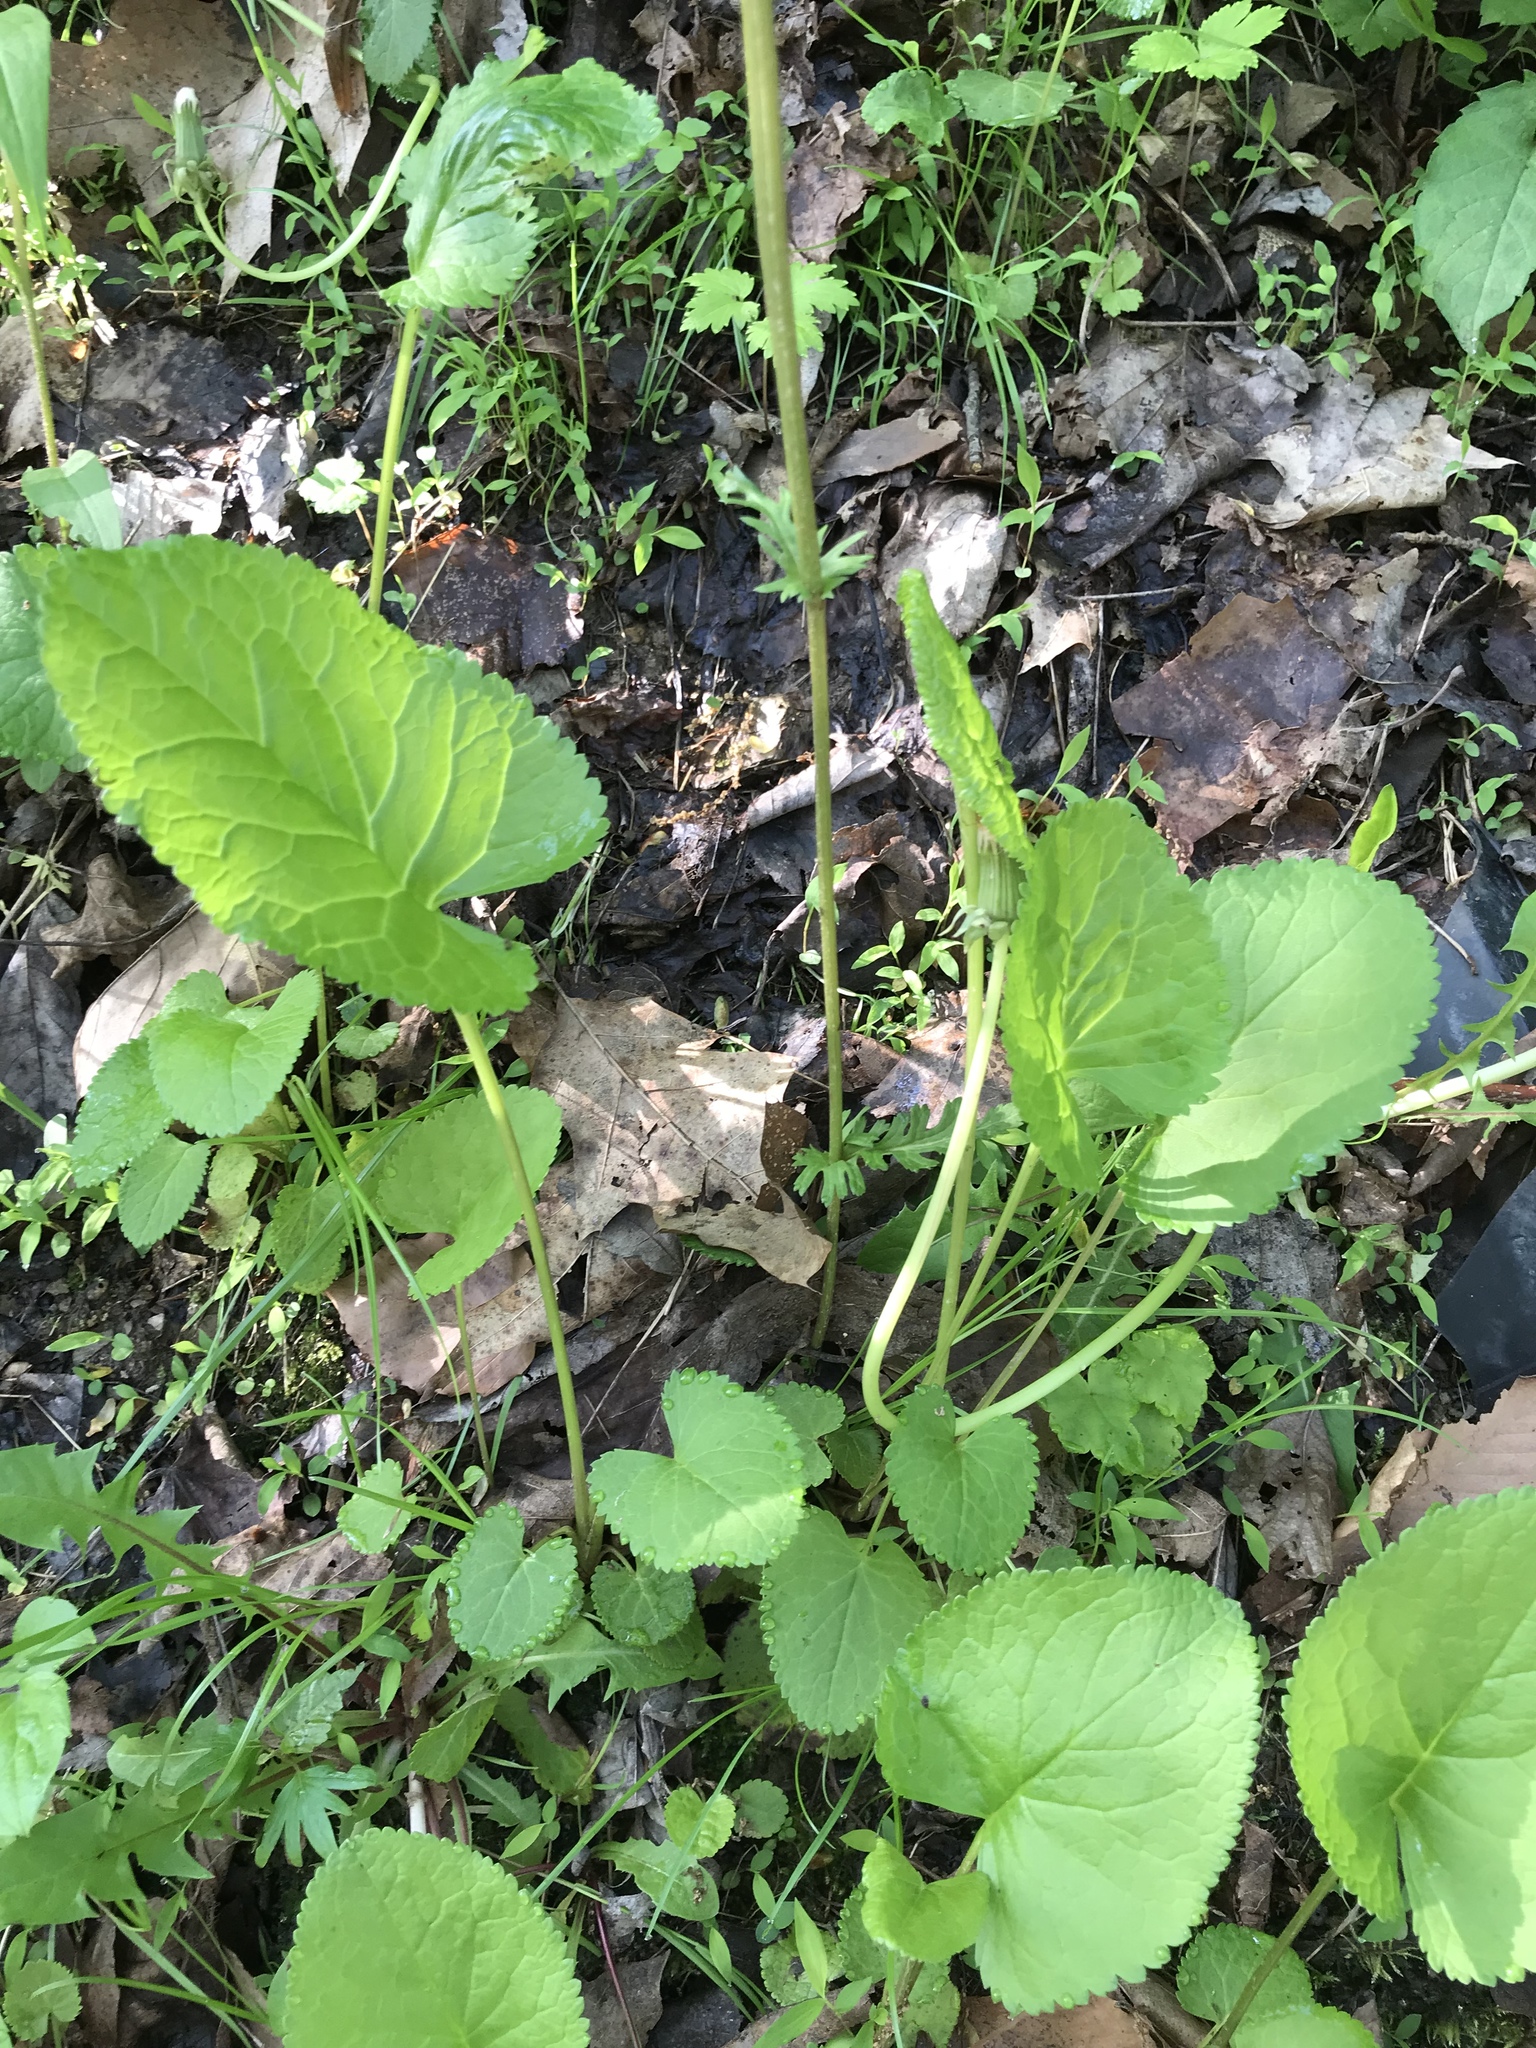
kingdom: Plantae
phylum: Tracheophyta
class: Magnoliopsida
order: Asterales
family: Asteraceae
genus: Packera
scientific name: Packera aurea
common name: Golden groundsel
